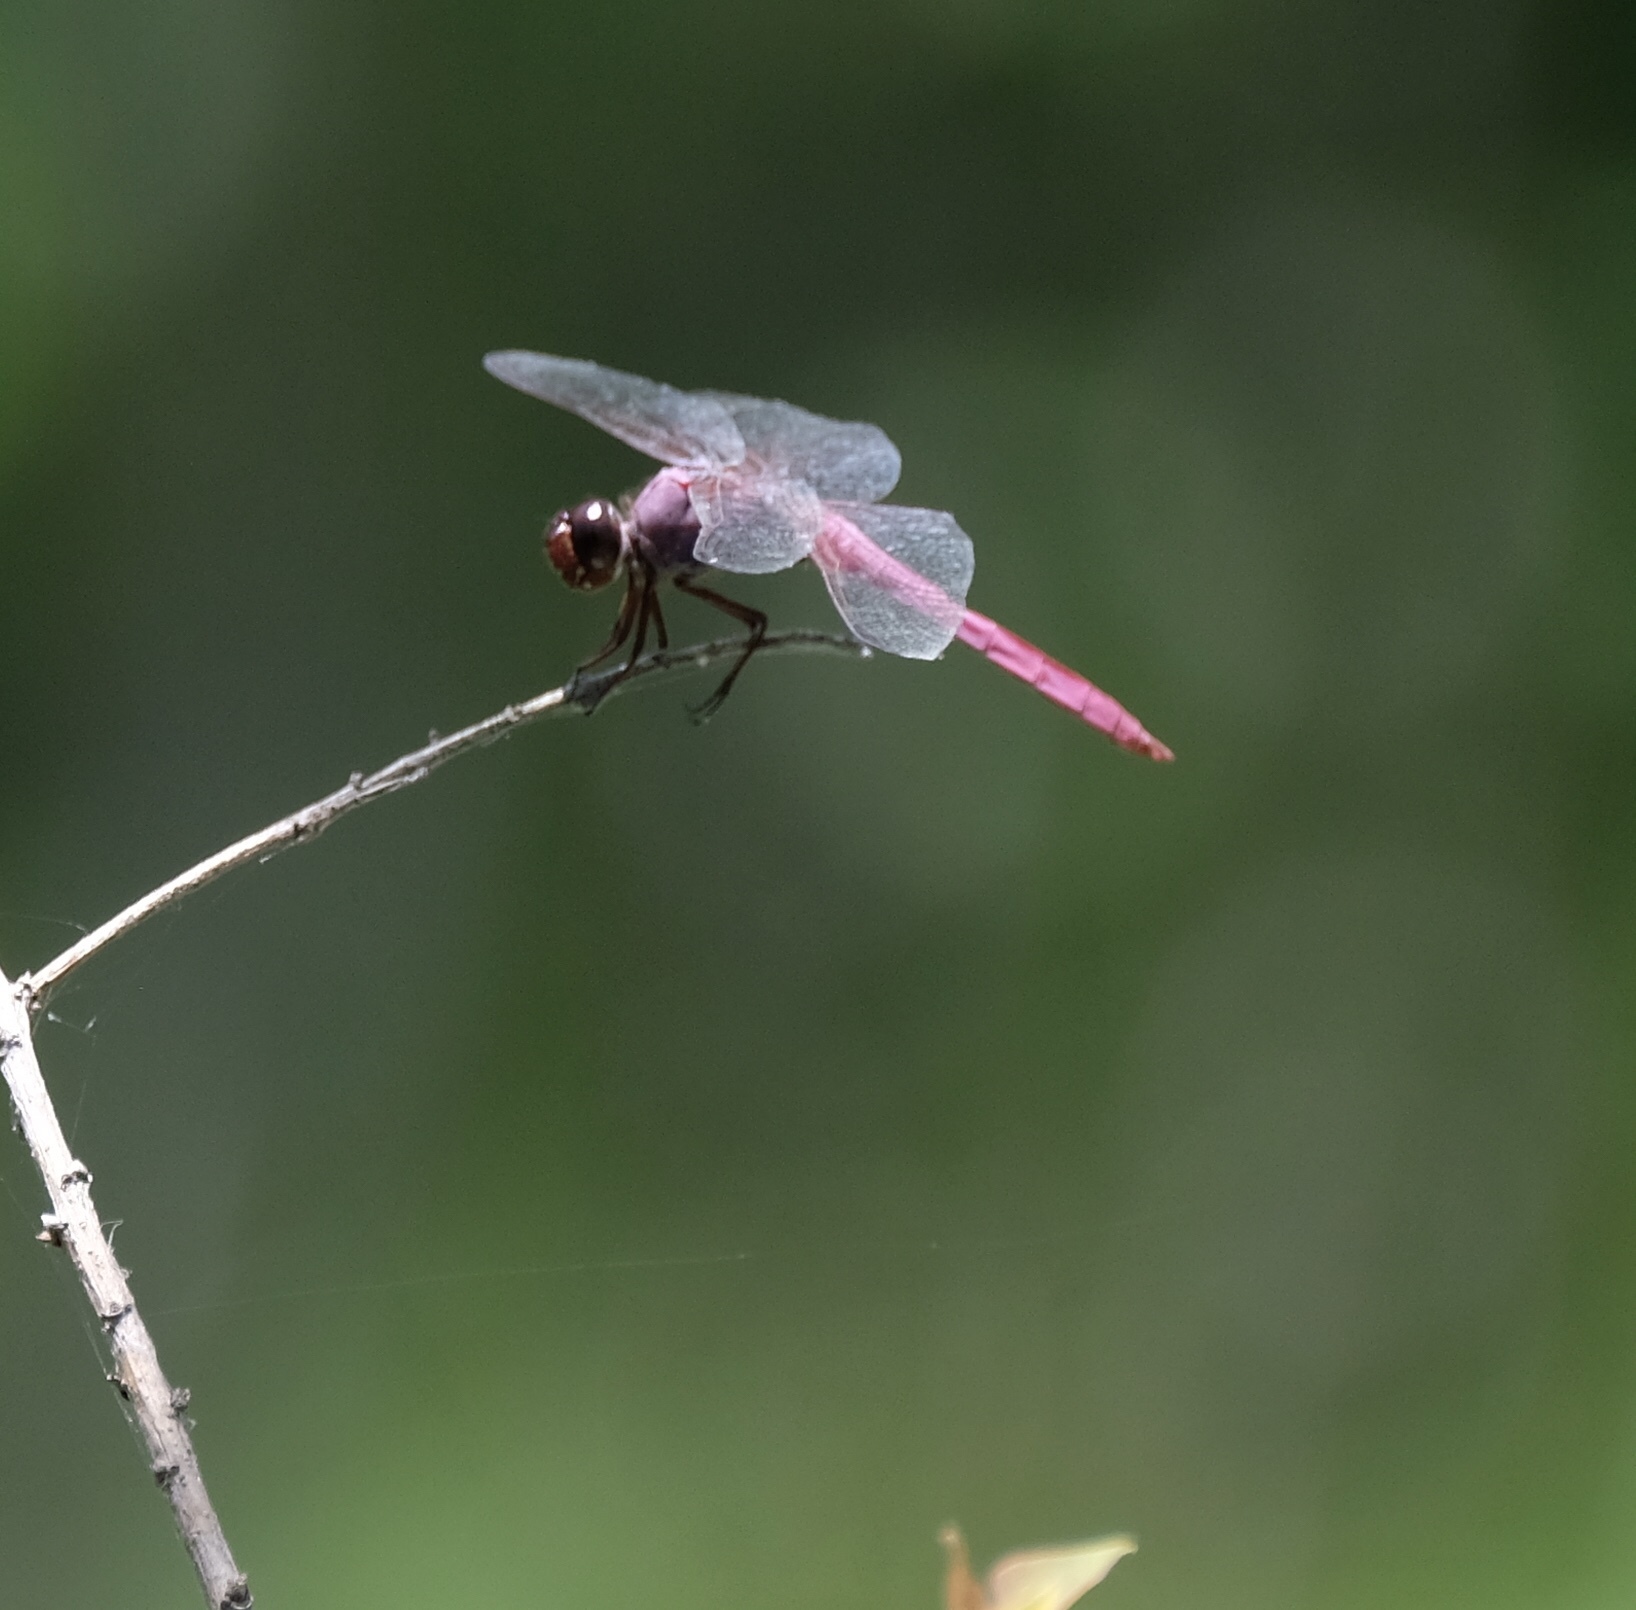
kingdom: Animalia
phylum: Arthropoda
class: Insecta
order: Odonata
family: Libellulidae
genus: Orthemis
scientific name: Orthemis ferruginea
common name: Roseate skimmer
